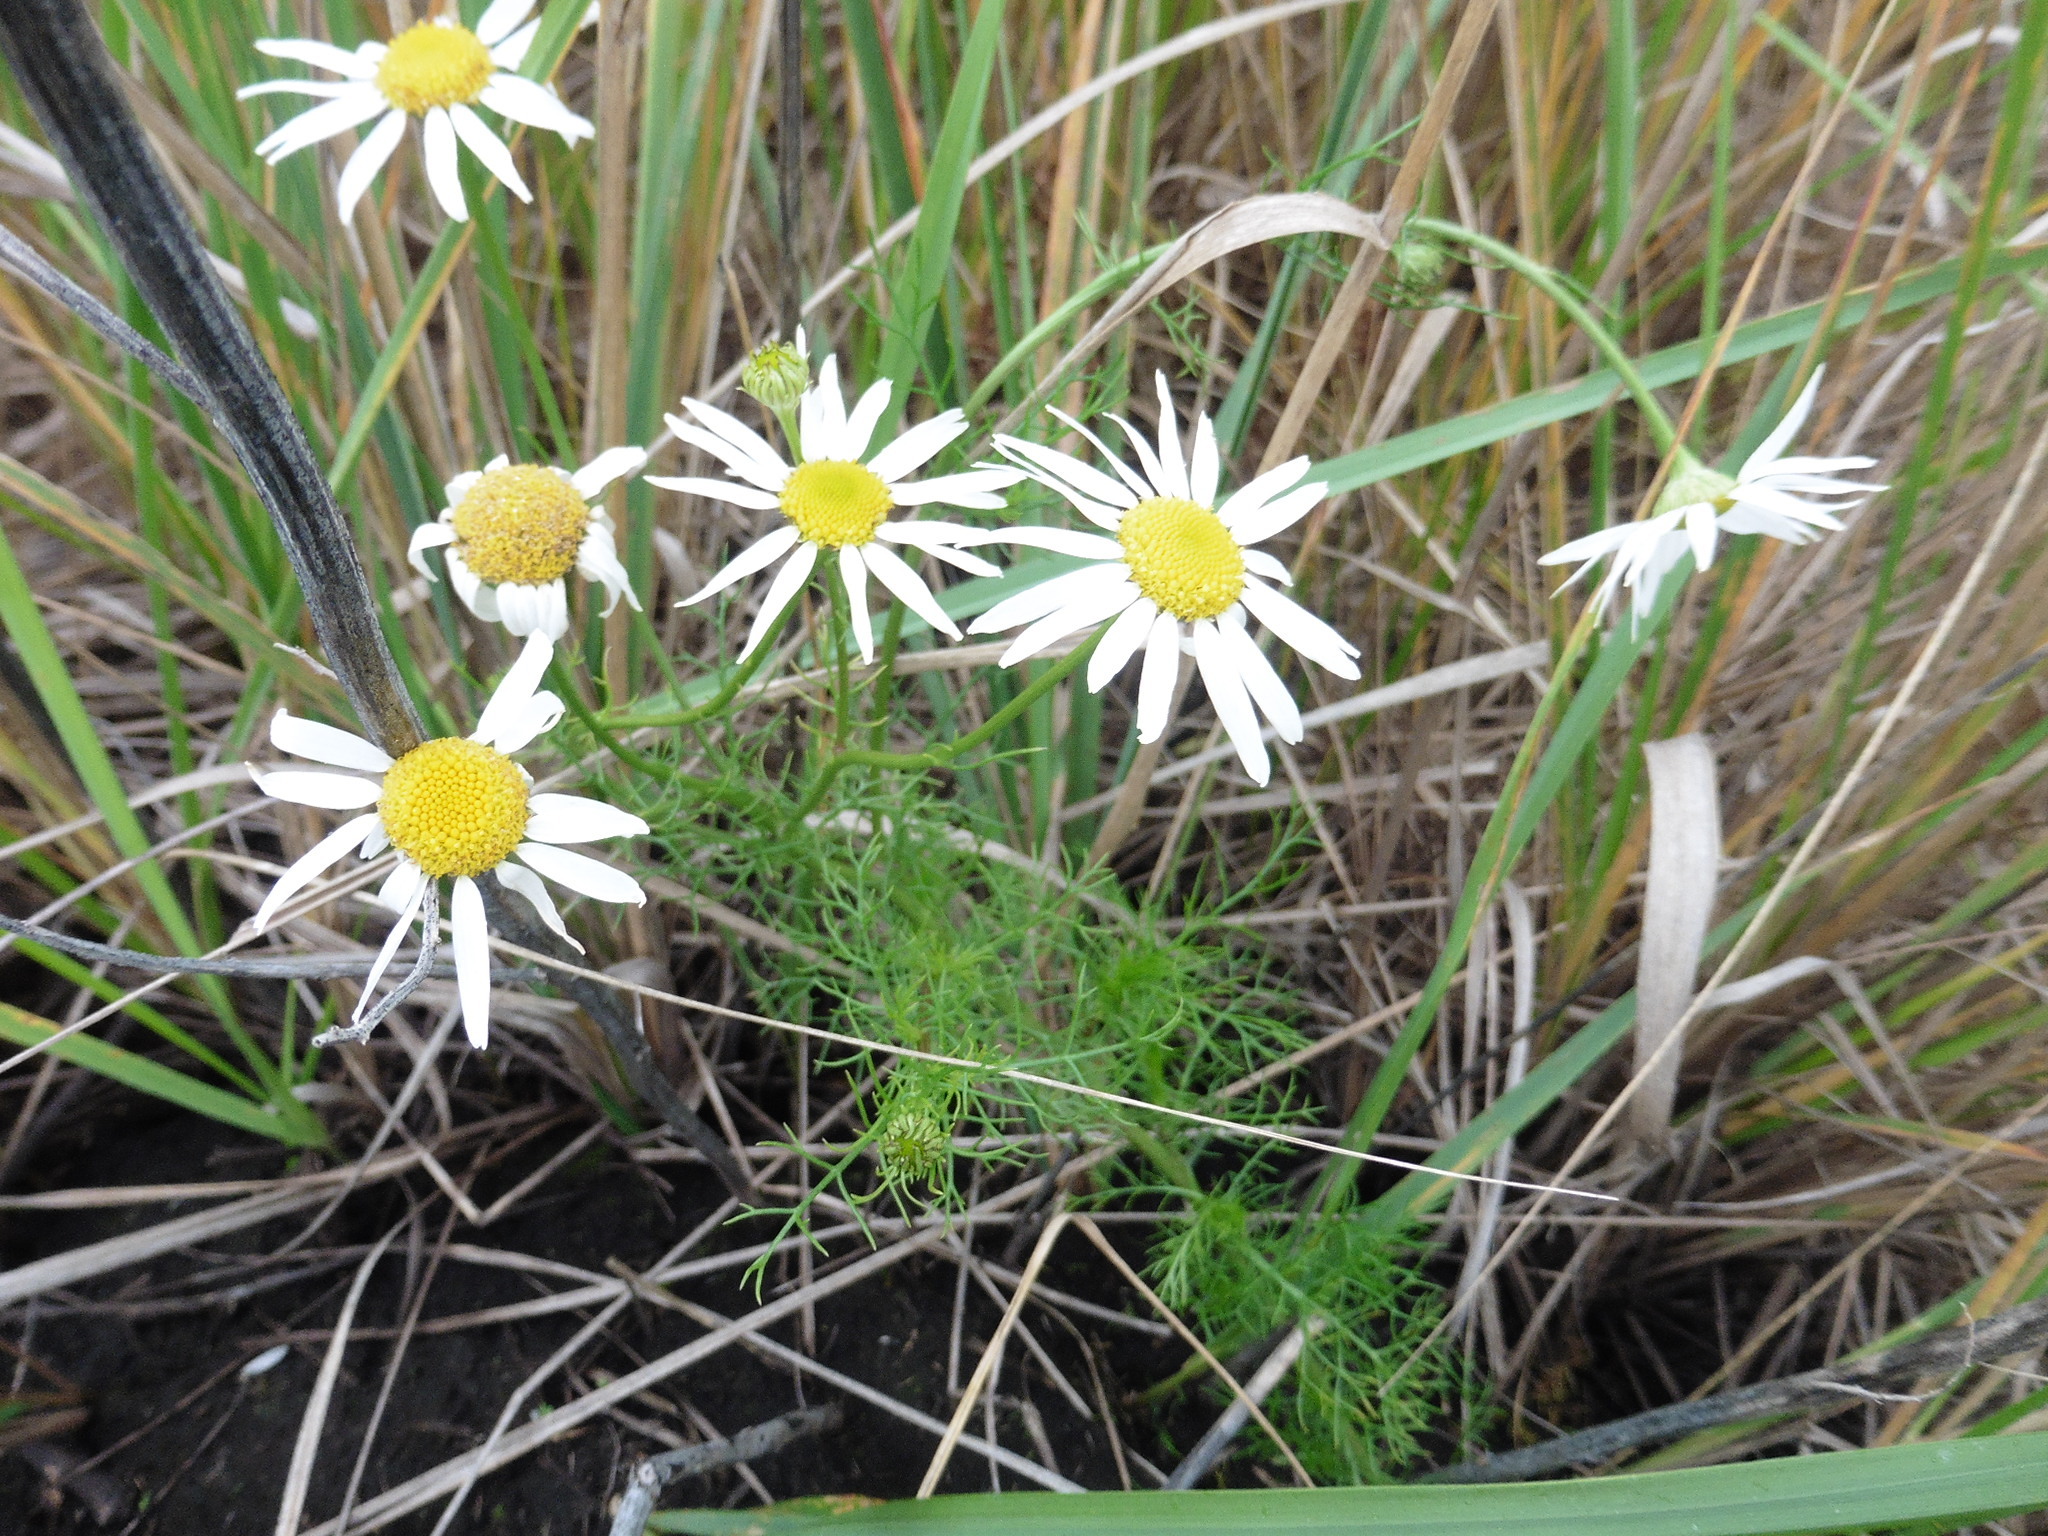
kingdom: Plantae
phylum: Tracheophyta
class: Magnoliopsida
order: Asterales
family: Asteraceae
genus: Tripleurospermum
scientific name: Tripleurospermum inodorum
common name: Scentless mayweed
